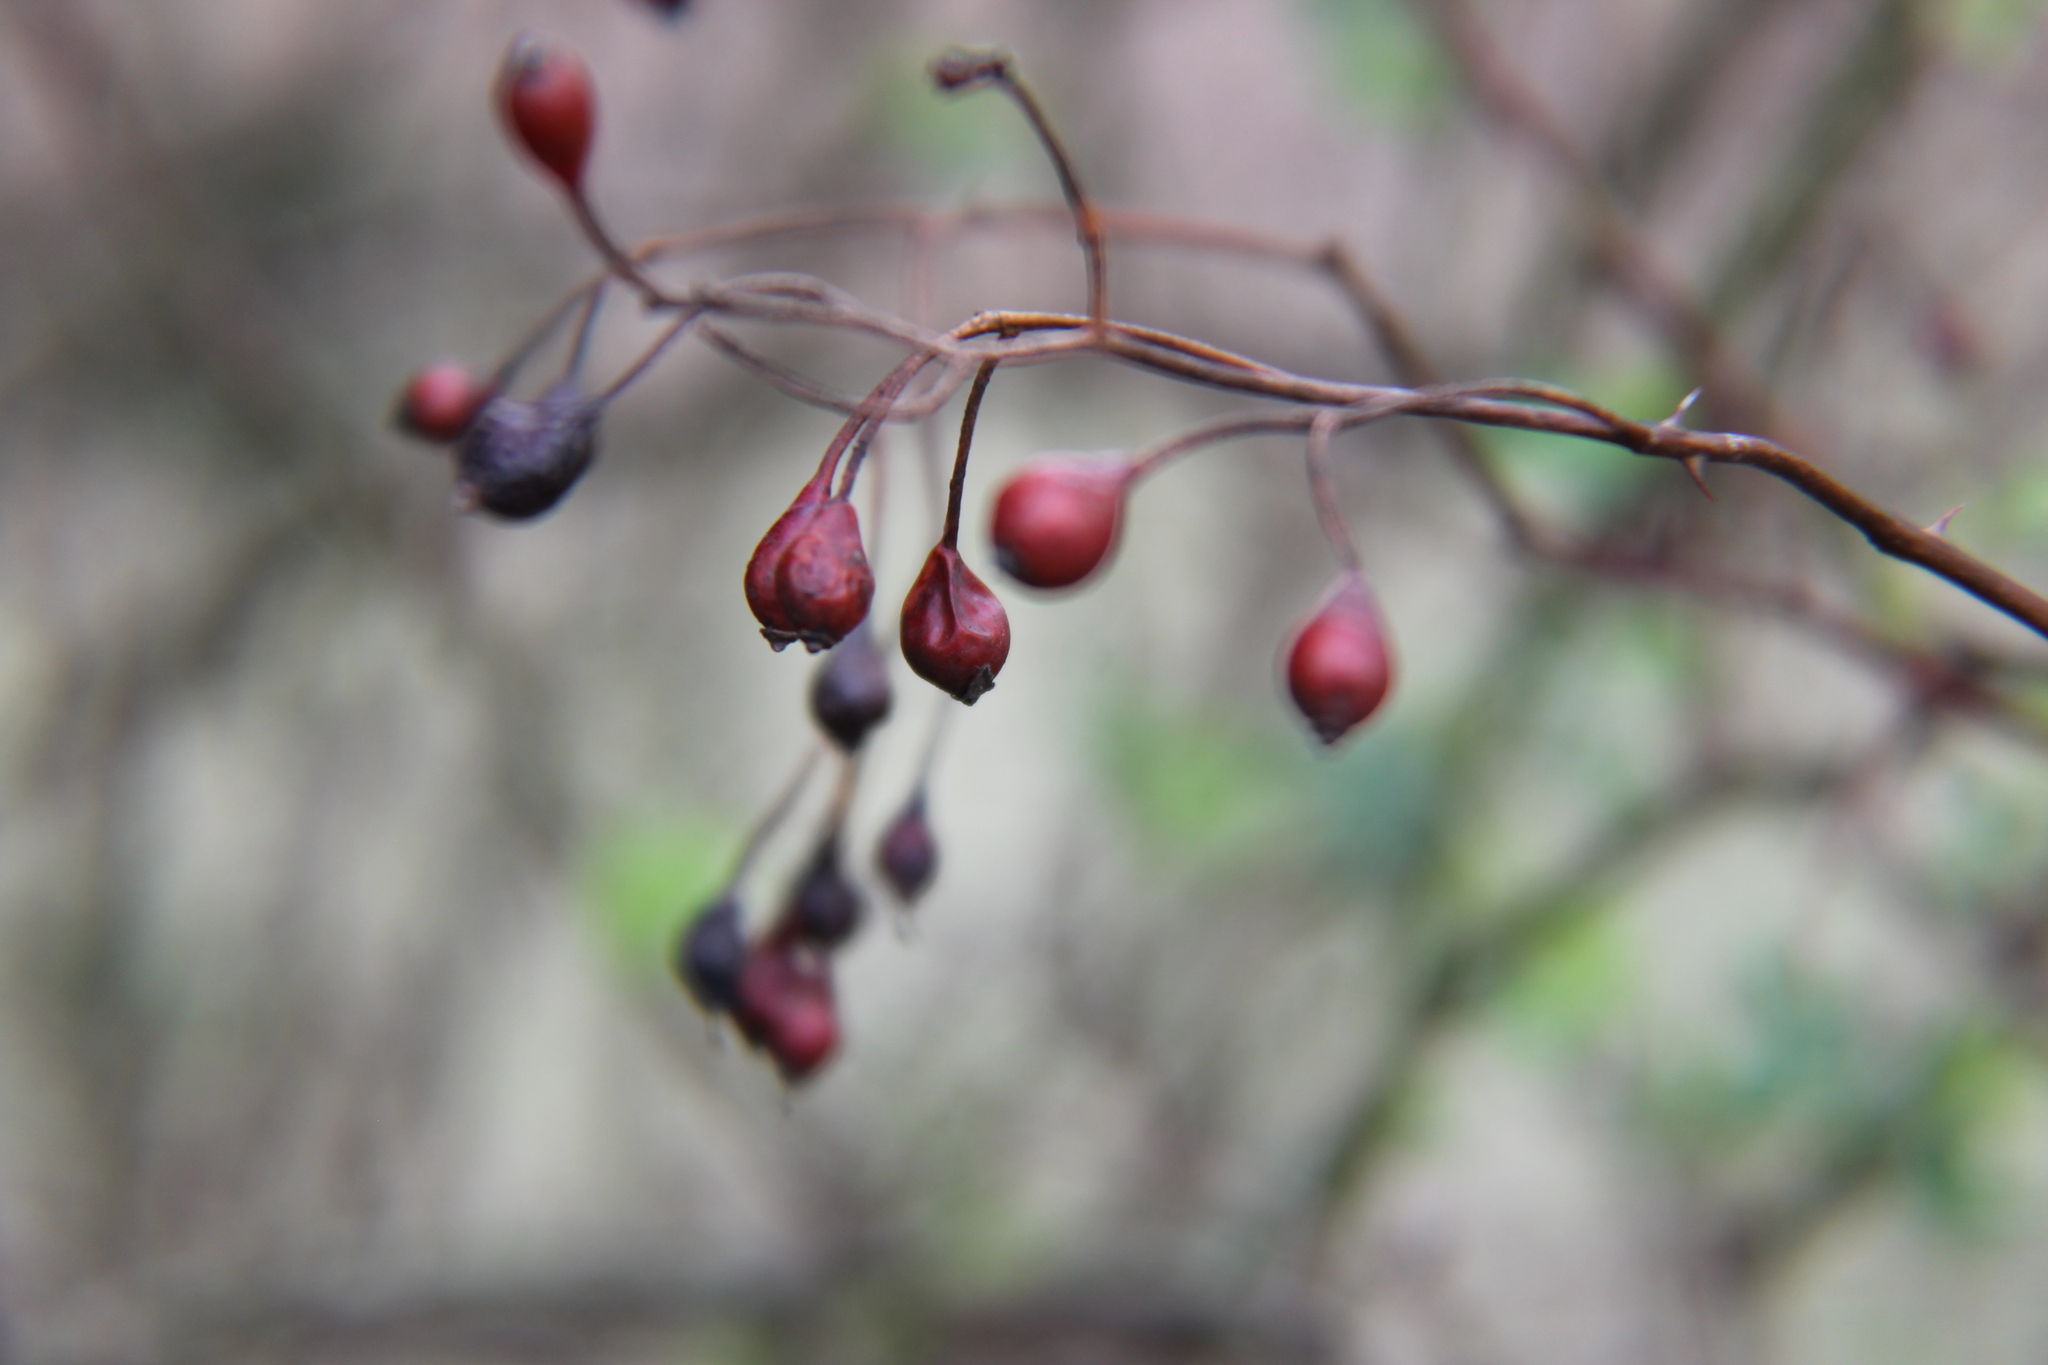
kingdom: Plantae
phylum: Tracheophyta
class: Magnoliopsida
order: Rosales
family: Rosaceae
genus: Rosa
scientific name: Rosa multiflora
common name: Multiflora rose
